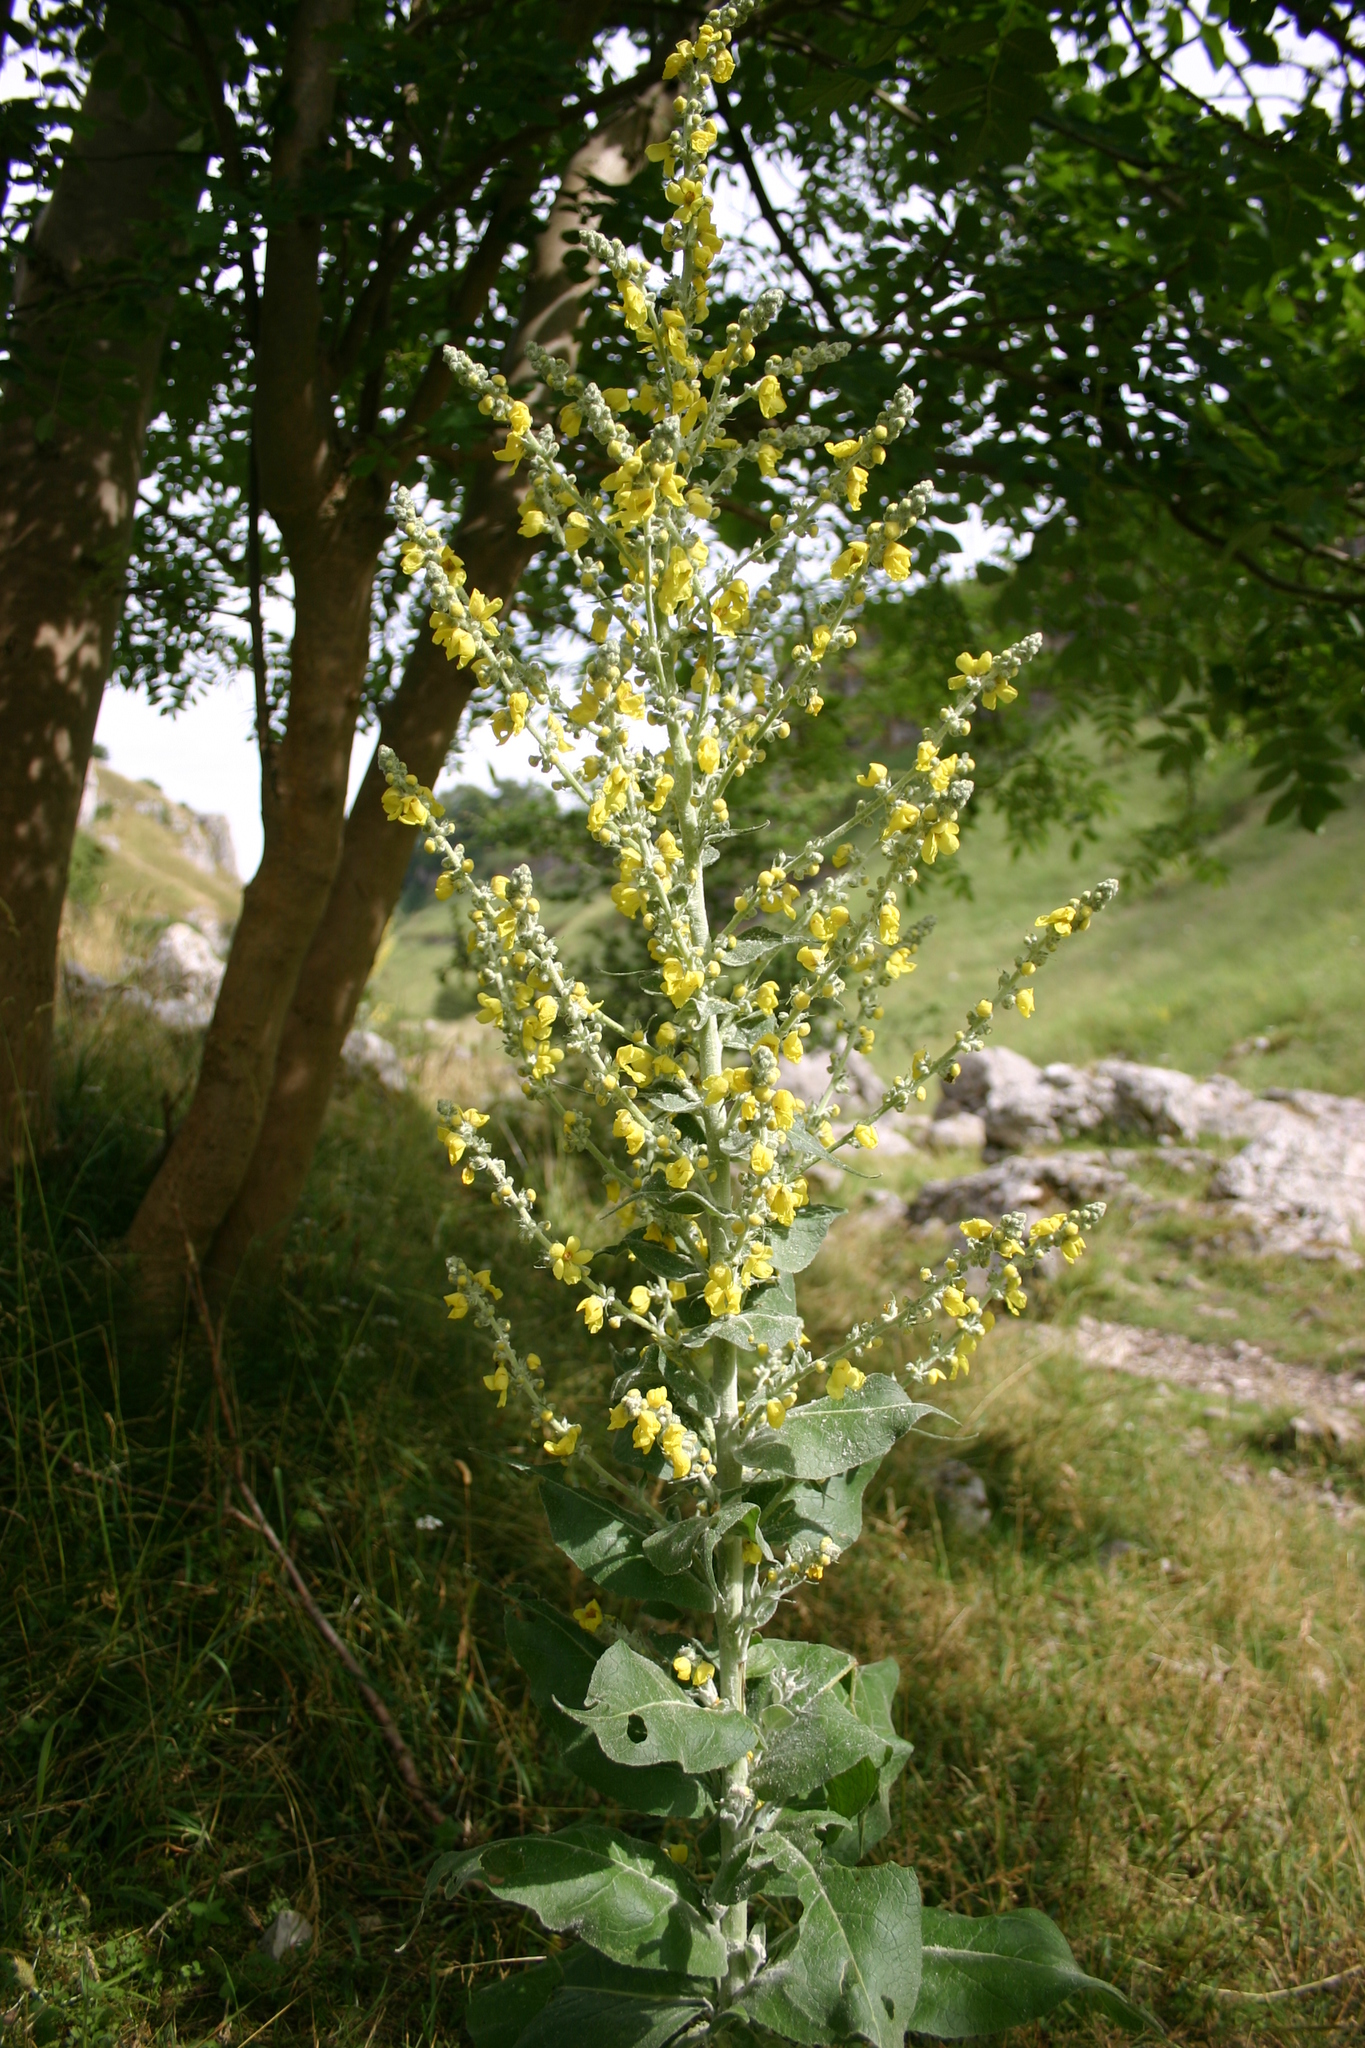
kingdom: Plantae
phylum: Tracheophyta
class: Magnoliopsida
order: Lamiales
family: Scrophulariaceae
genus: Verbascum
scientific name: Verbascum pulverulentum
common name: Broad-leaf mullein
